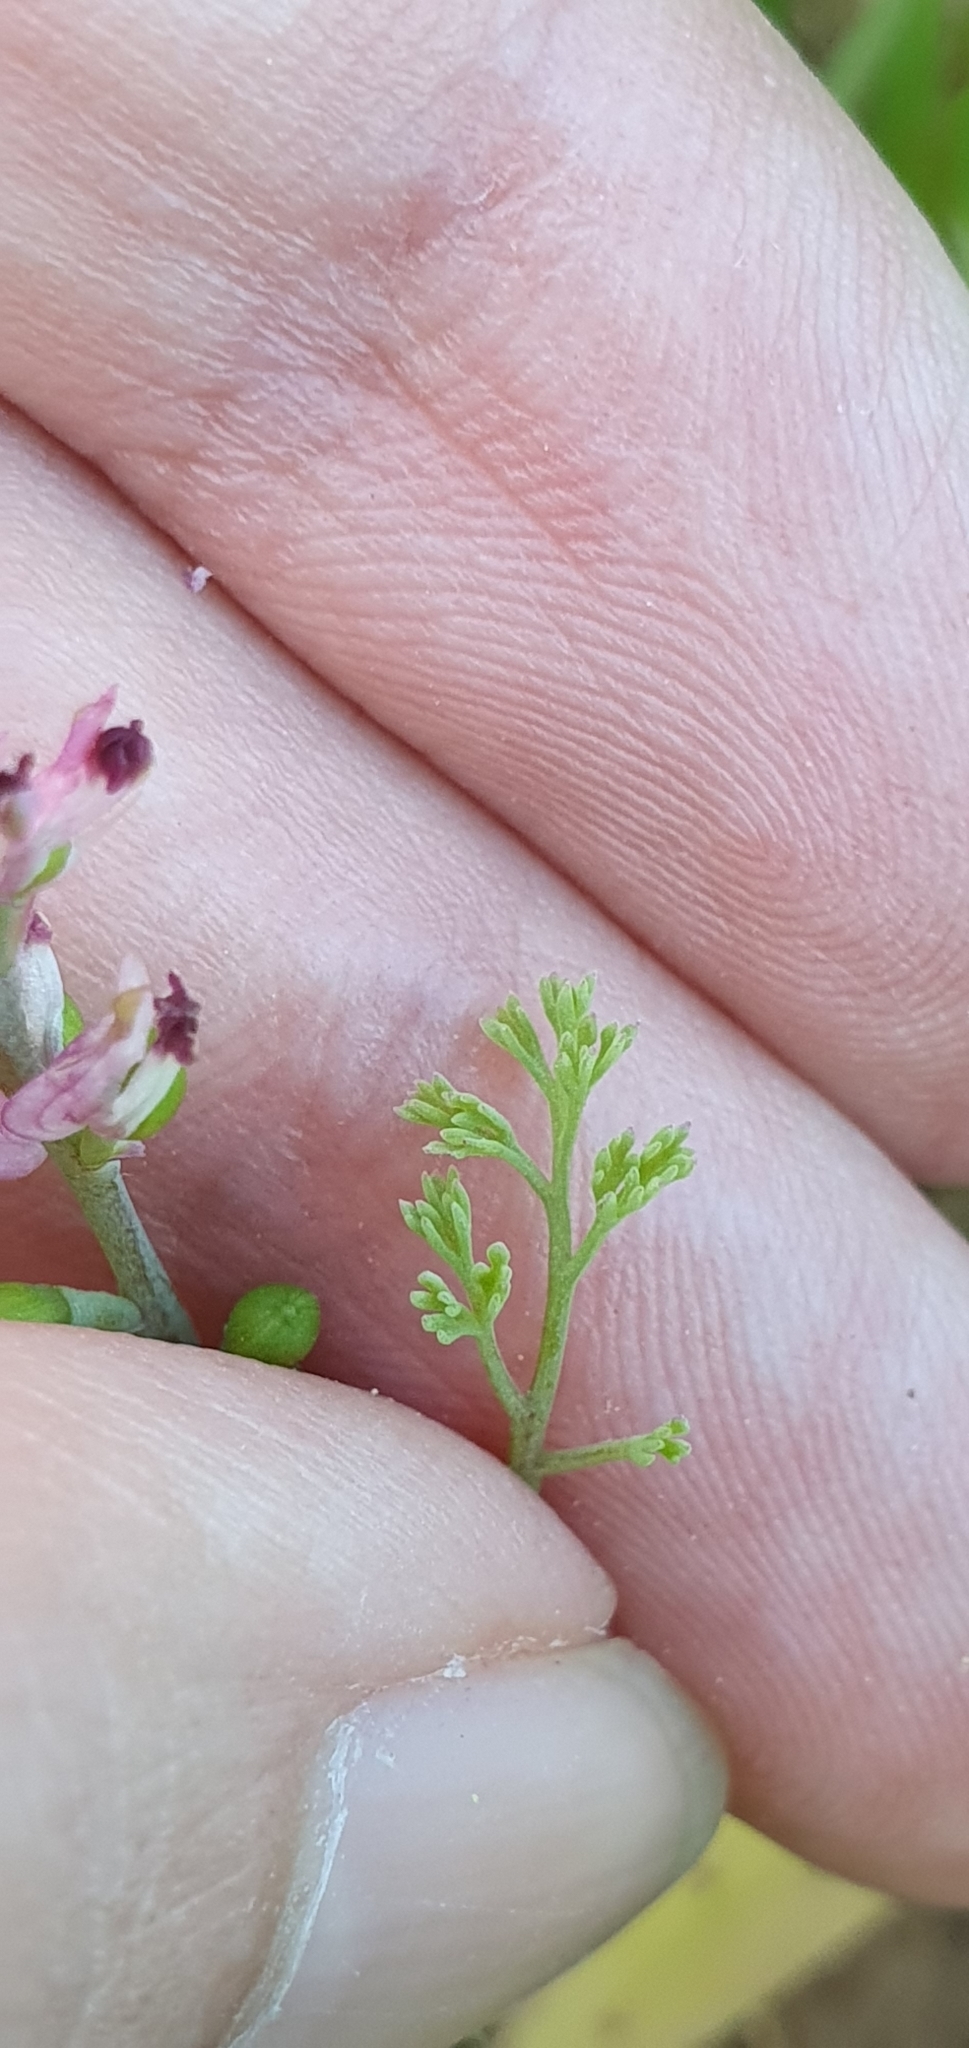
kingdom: Plantae
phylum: Tracheophyta
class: Magnoliopsida
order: Ranunculales
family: Papaveraceae
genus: Fumaria
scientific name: Fumaria parviflora
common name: Fine-leaved fumitory
